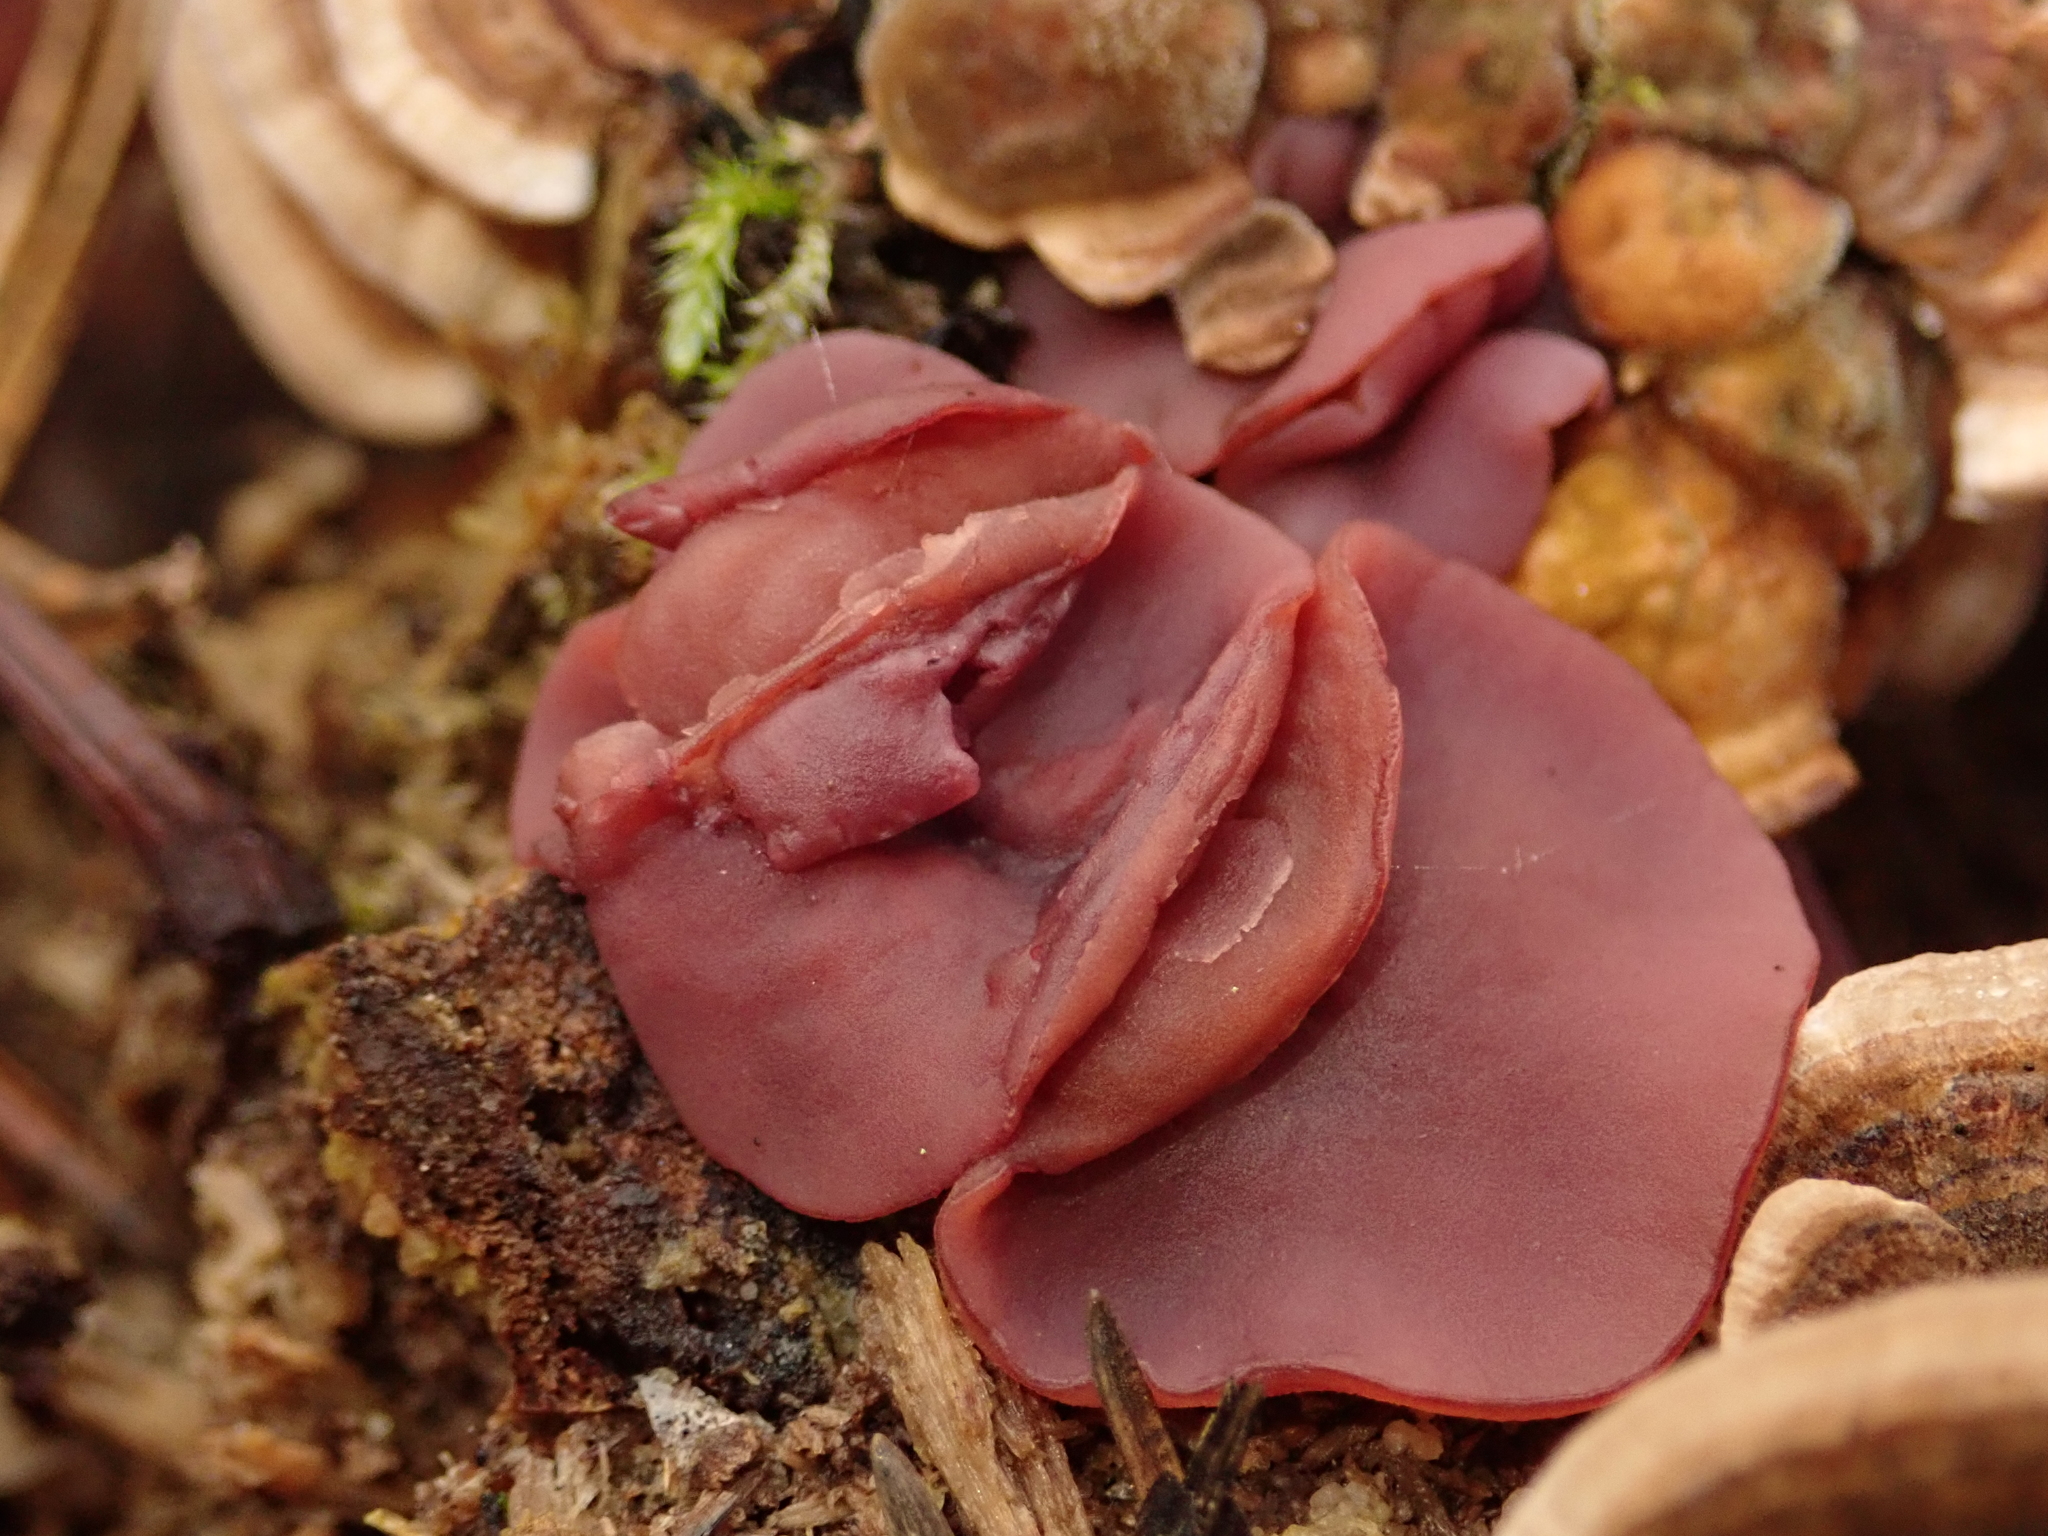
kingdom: Fungi
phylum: Ascomycota
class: Leotiomycetes
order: Helotiales
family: Gelatinodiscaceae
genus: Ascocoryne
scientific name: Ascocoryne sarcoides
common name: Purple jellydisc
